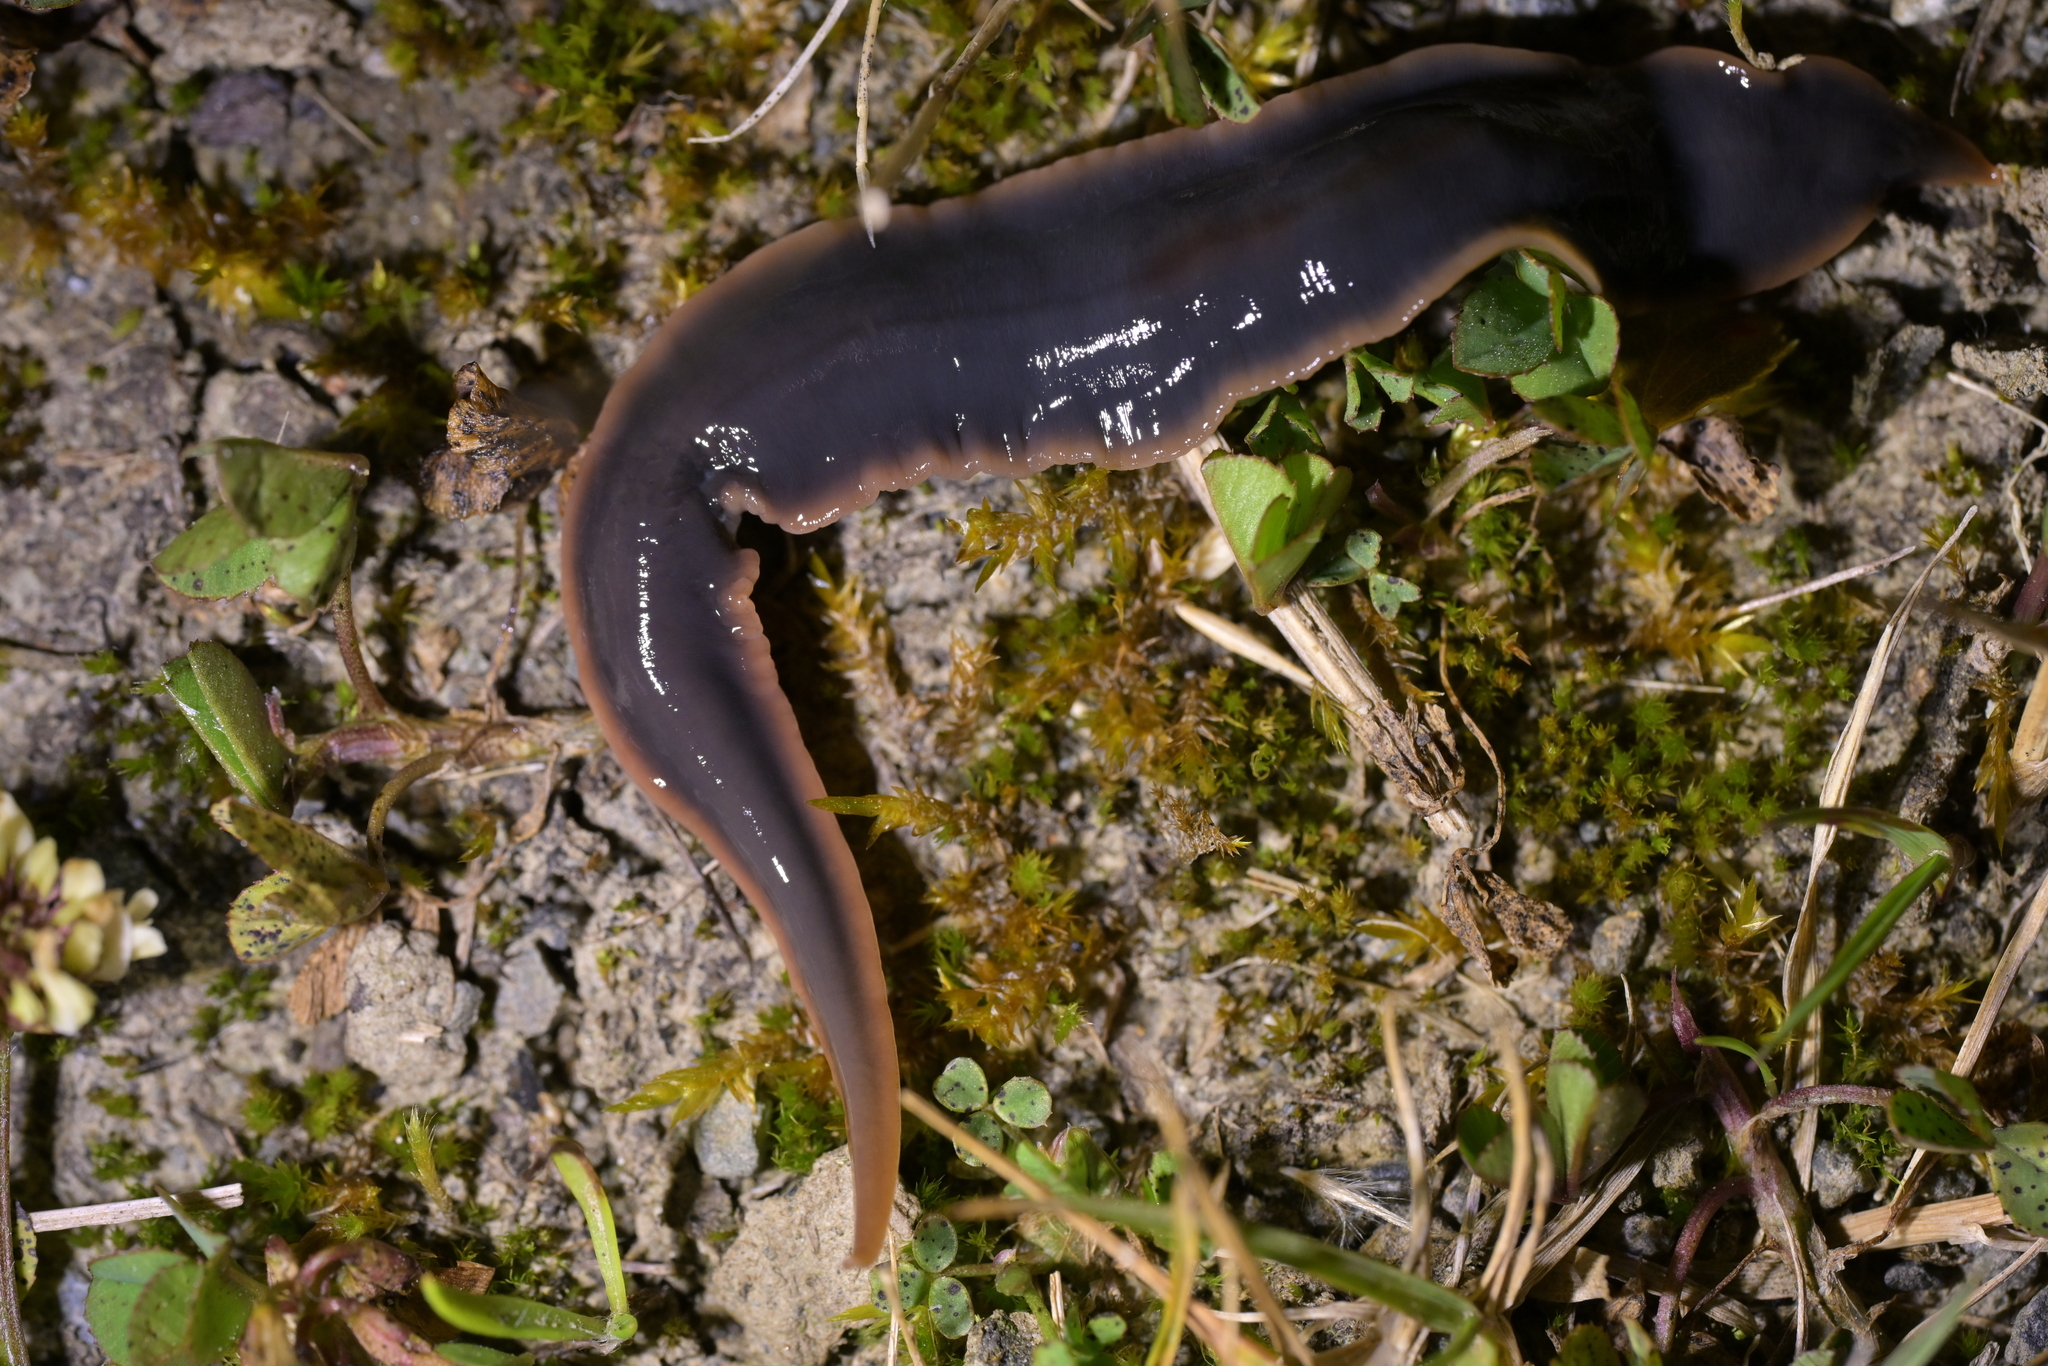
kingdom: Animalia
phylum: Platyhelminthes
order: Tricladida
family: Geoplanidae
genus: Arthurdendyus
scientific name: Arthurdendyus triangulatus
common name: New zealand flatworm
